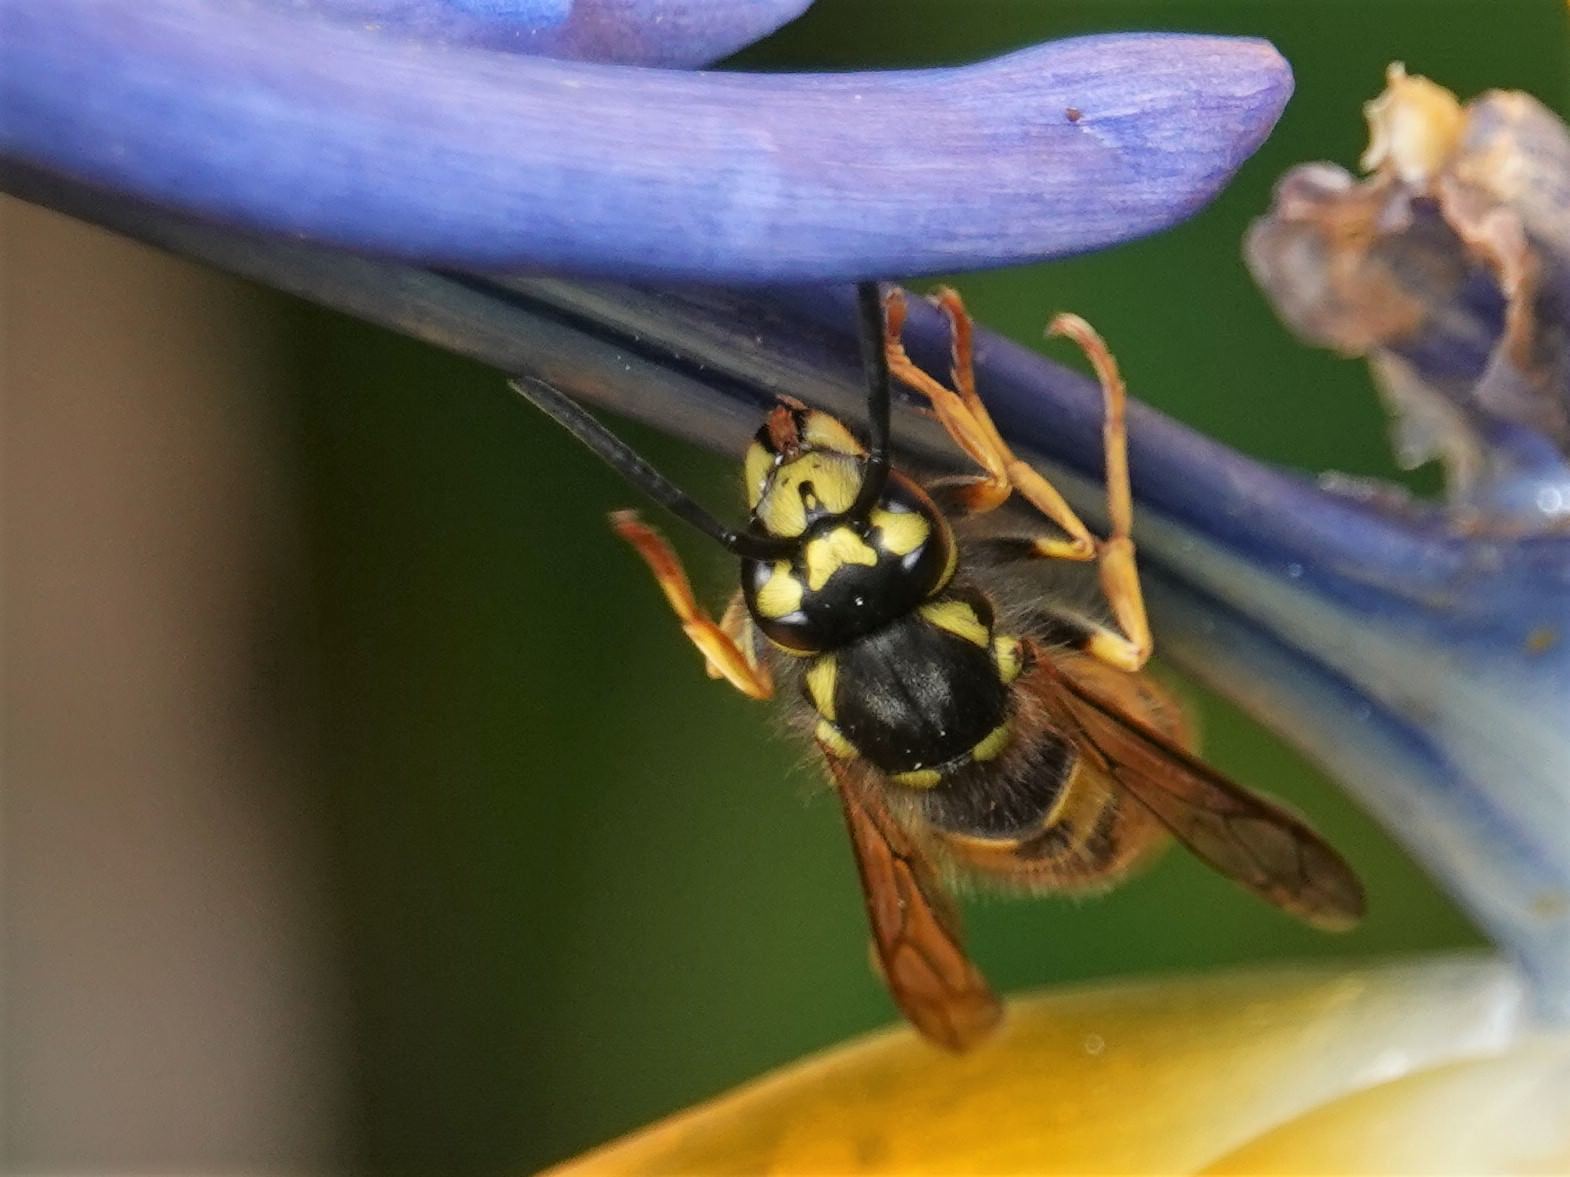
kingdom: Animalia
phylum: Arthropoda
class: Insecta
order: Hymenoptera
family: Vespidae
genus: Vespula
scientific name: Vespula germanica
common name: German wasp
